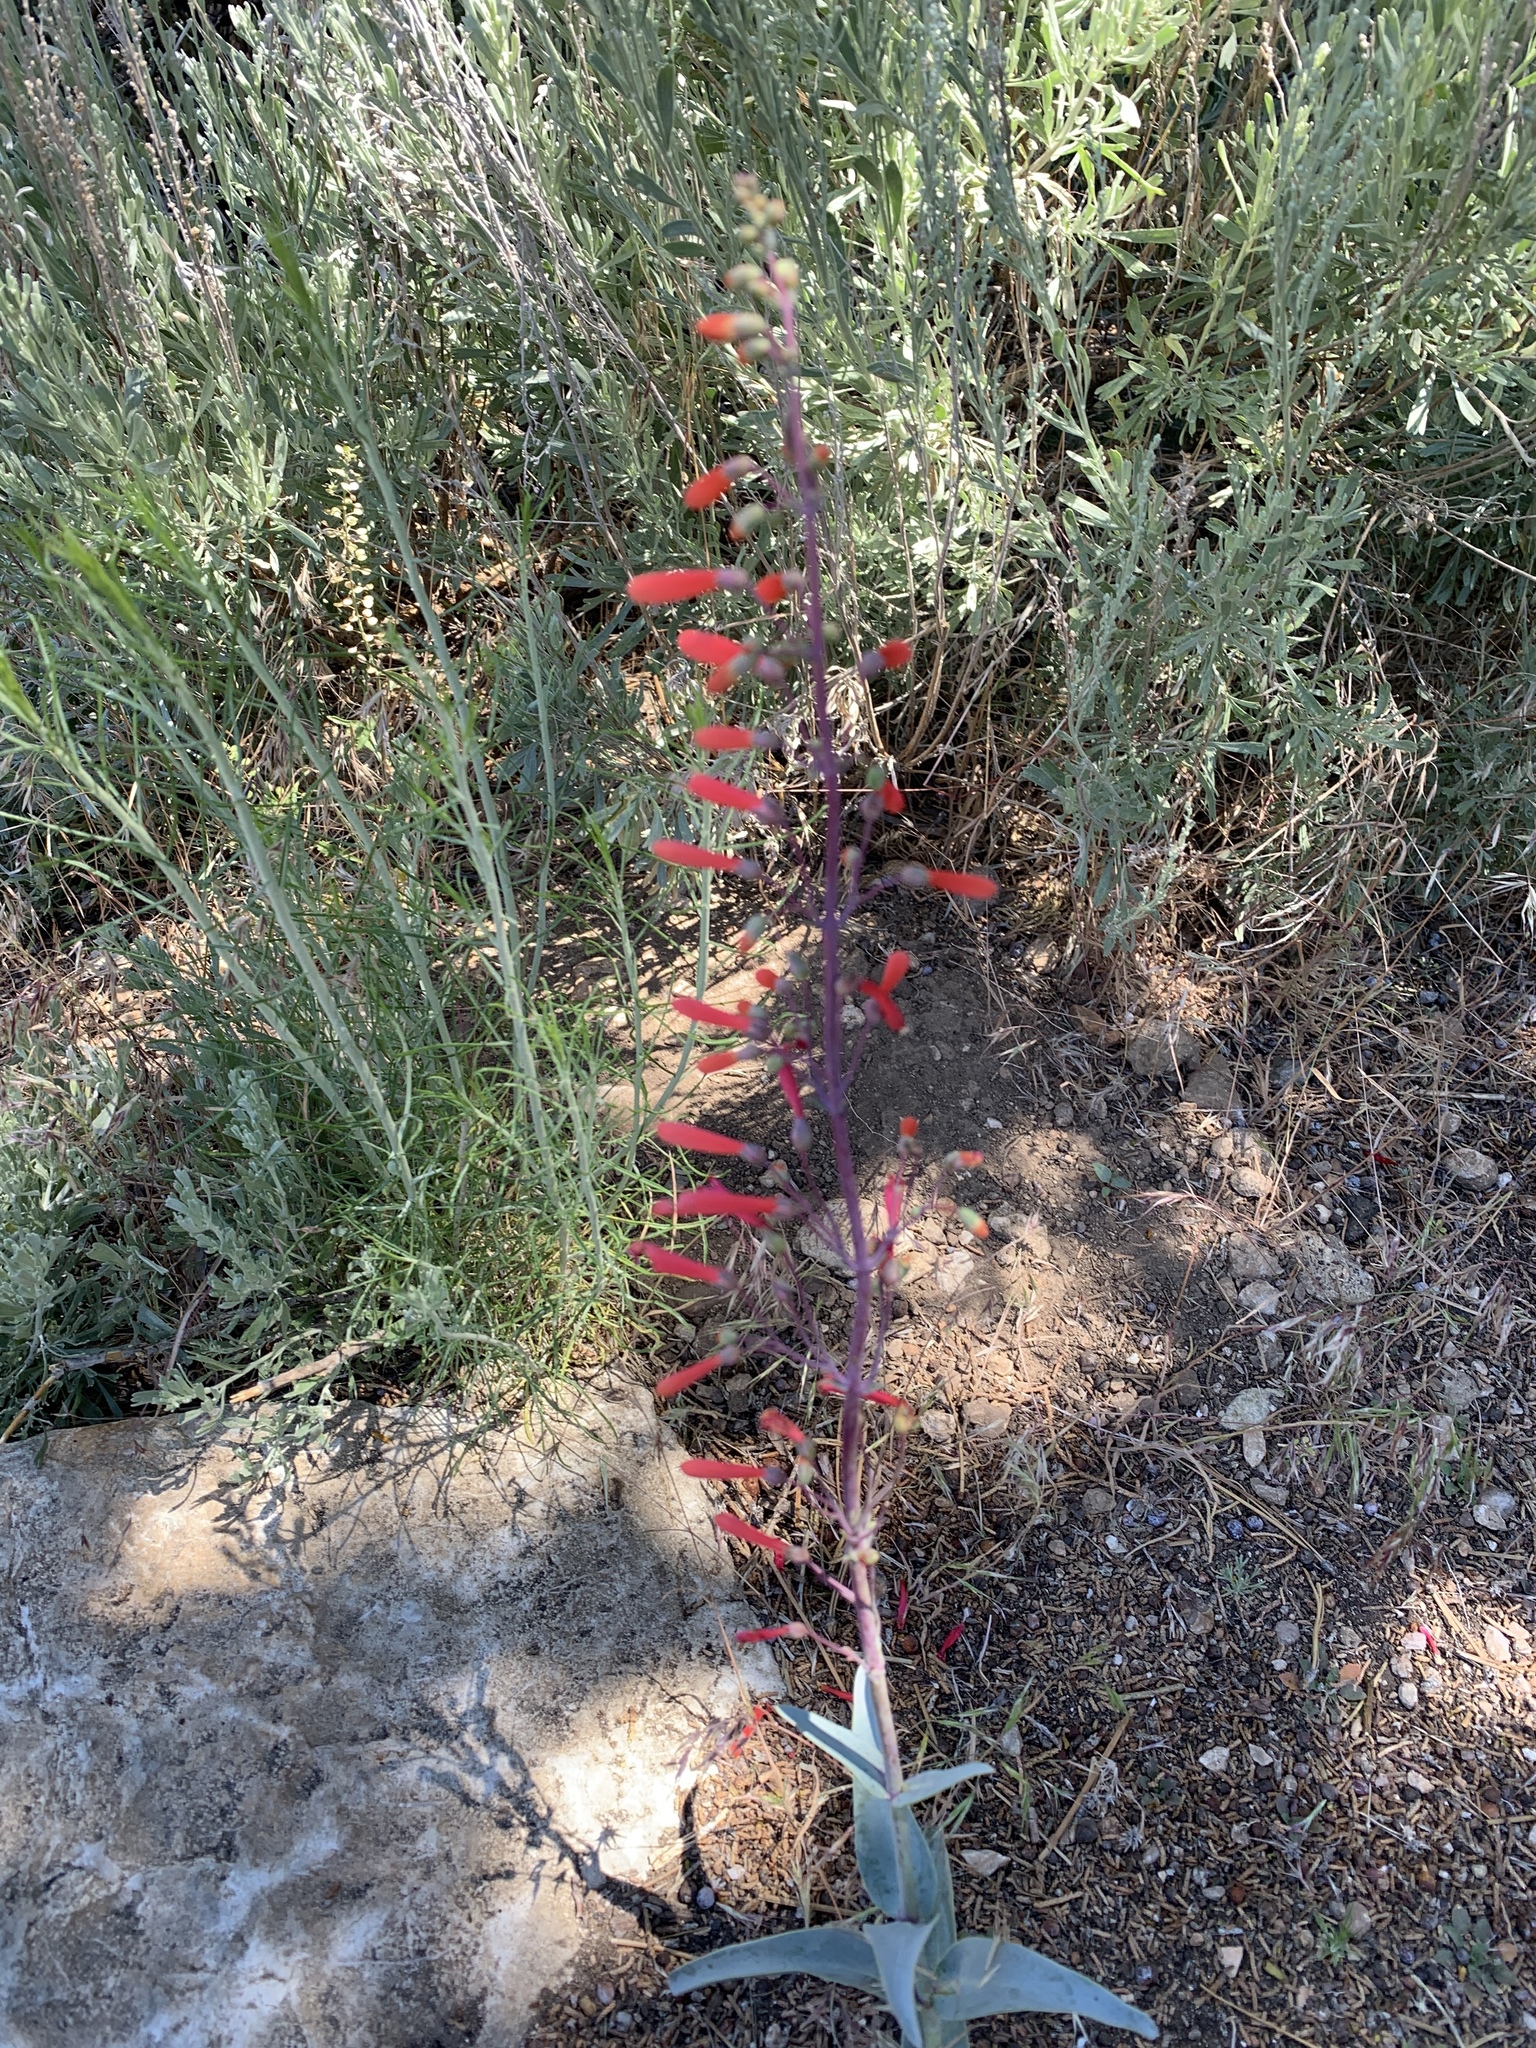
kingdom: Plantae
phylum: Tracheophyta
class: Magnoliopsida
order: Lamiales
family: Plantaginaceae
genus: Penstemon
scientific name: Penstemon centranthifolius
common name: Scarlet bugler
